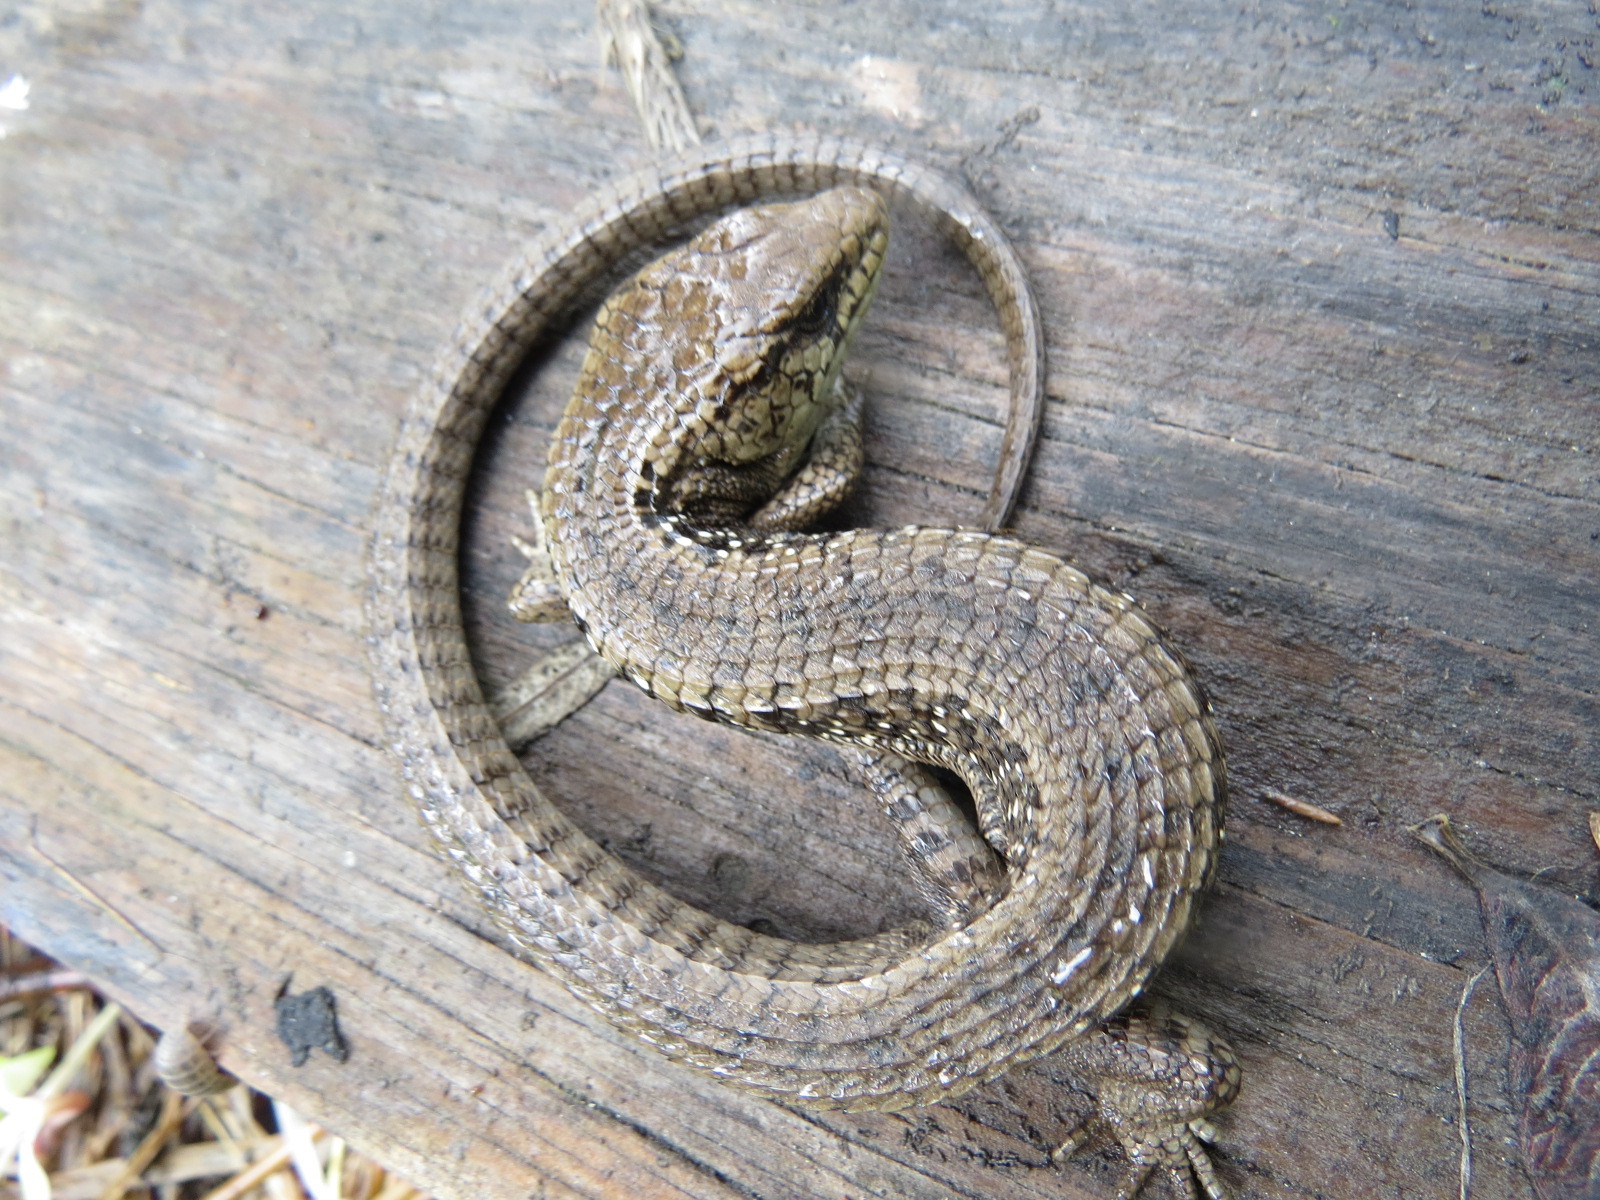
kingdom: Animalia
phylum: Chordata
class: Squamata
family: Anguidae
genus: Elgaria
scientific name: Elgaria coerulea
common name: Northern alligator lizard
